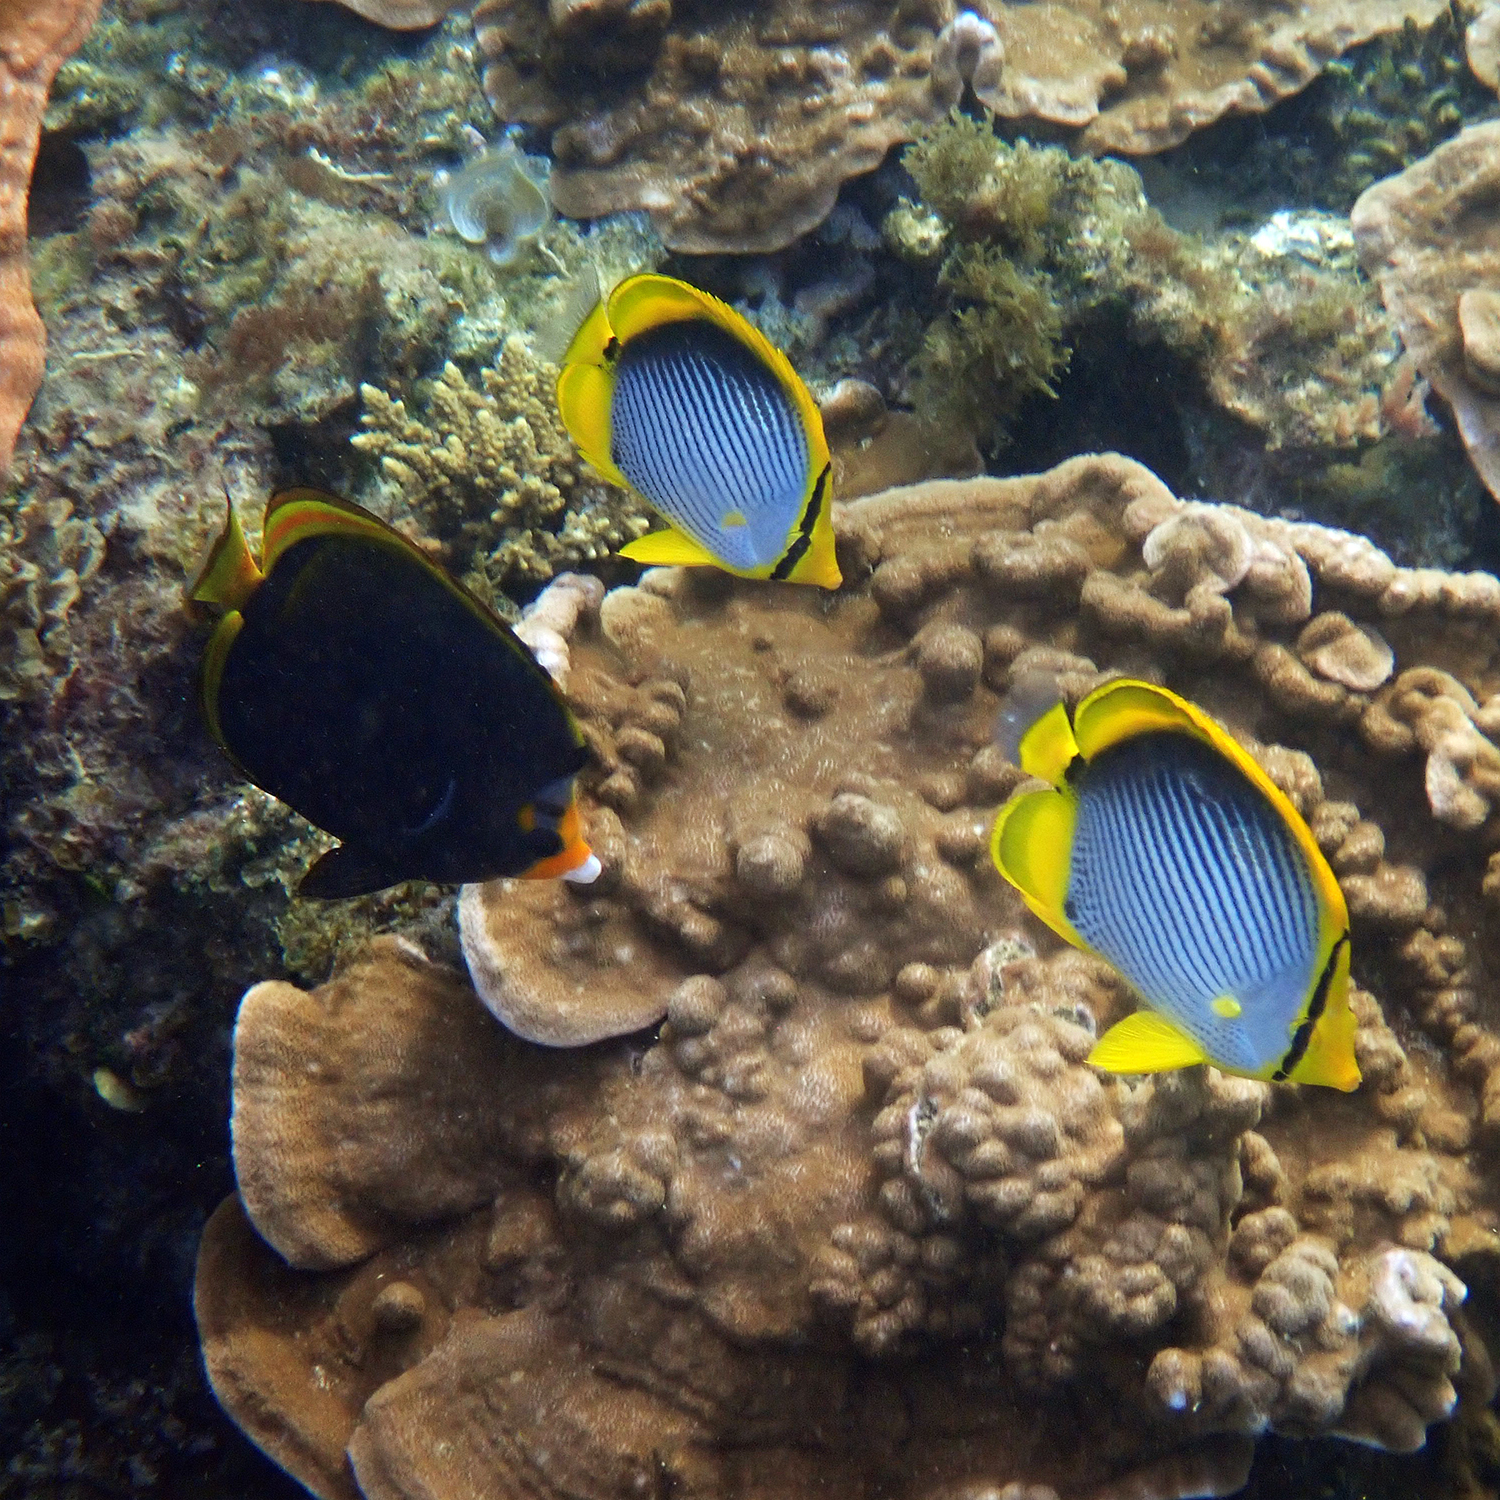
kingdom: Animalia
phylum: Chordata
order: Perciformes
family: Chaetodontidae
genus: Chaetodon
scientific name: Chaetodon melannotus
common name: Blackback butterflyfish
